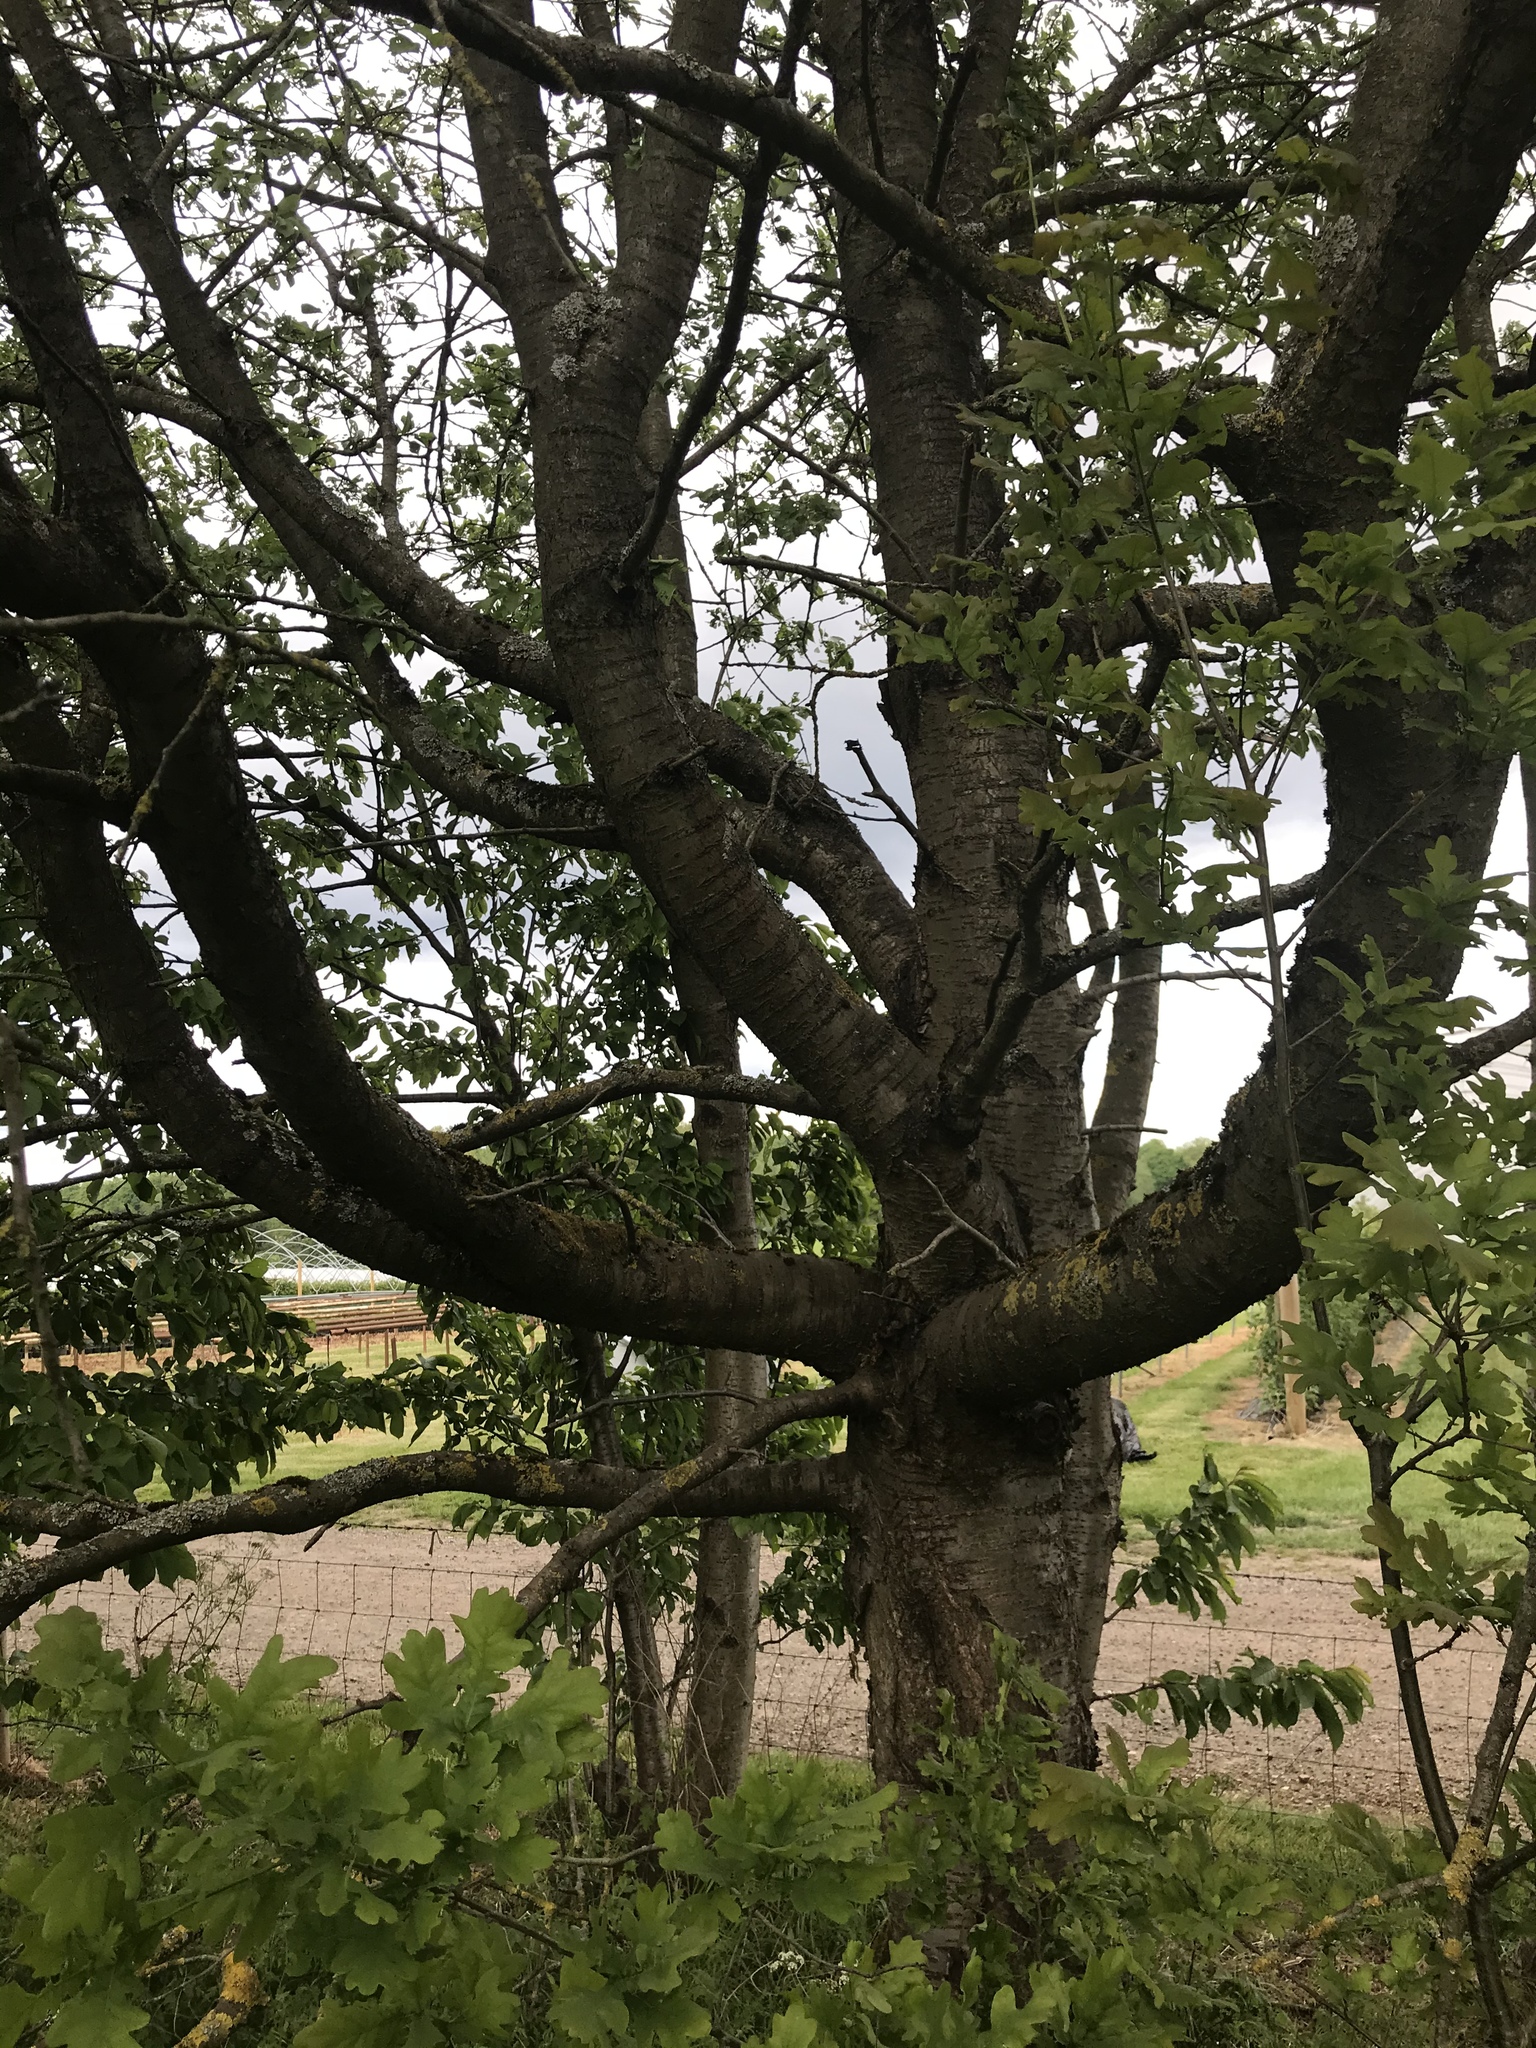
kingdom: Plantae
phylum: Tracheophyta
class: Magnoliopsida
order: Rosales
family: Rosaceae
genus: Prunus
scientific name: Prunus avium
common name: Sweet cherry
